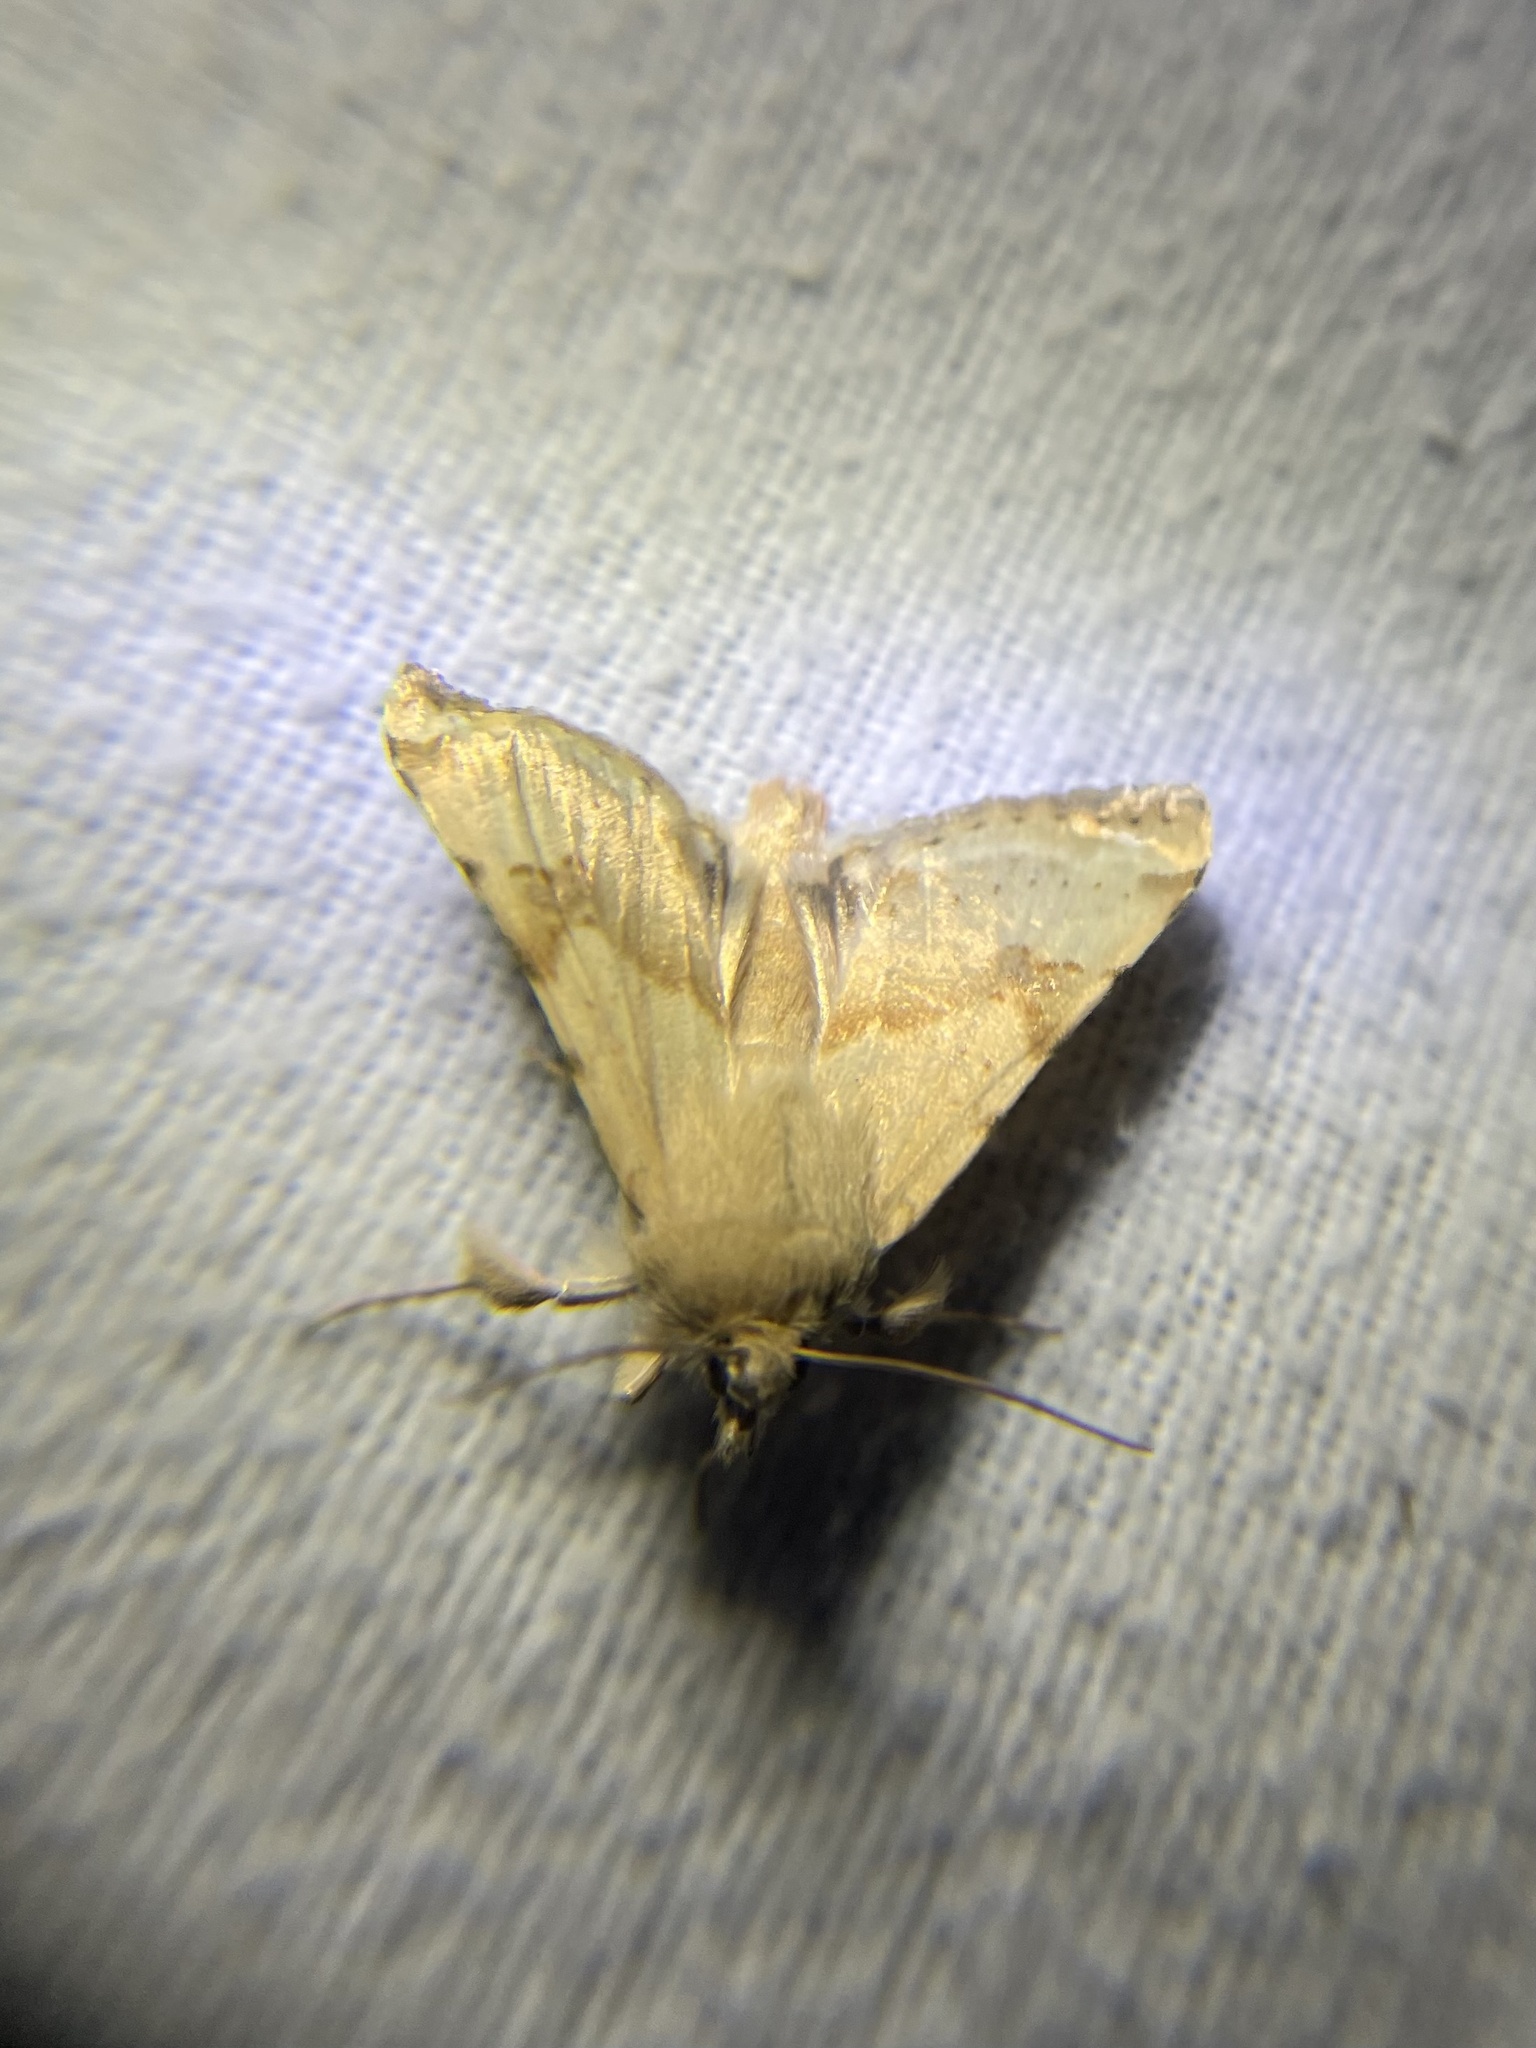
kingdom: Animalia
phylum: Arthropoda
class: Insecta
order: Lepidoptera
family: Noctuidae
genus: Heliothis
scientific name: Heliothis phloxiphaga
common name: Darker spotted straw moth
